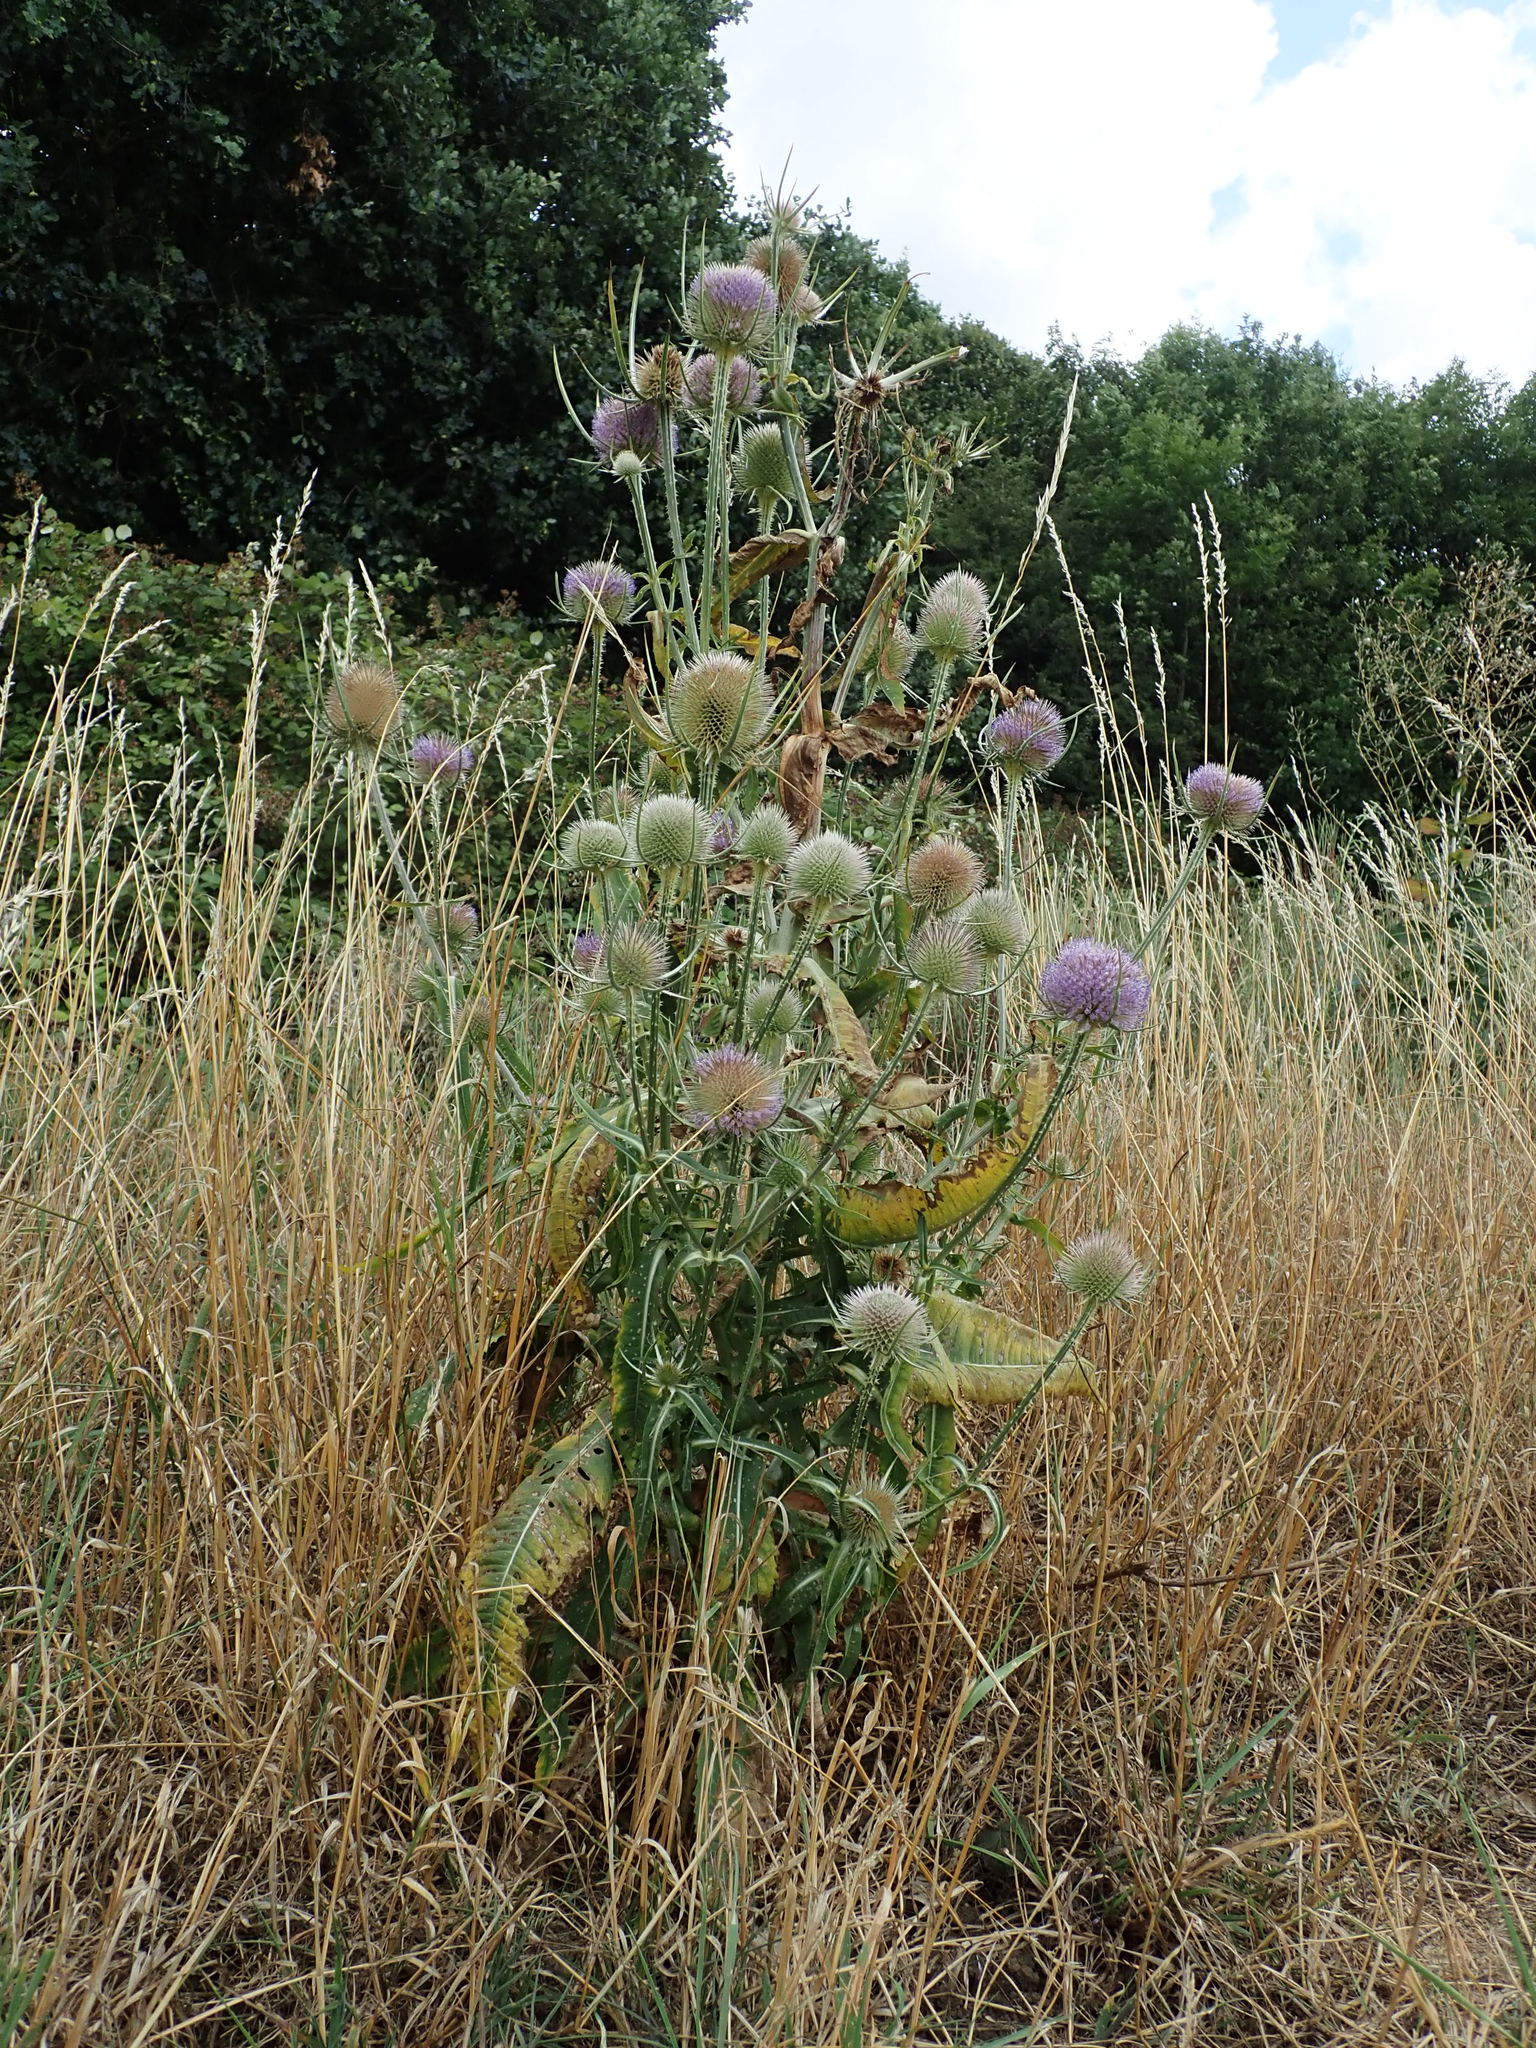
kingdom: Plantae
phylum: Tracheophyta
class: Magnoliopsida
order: Dipsacales
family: Caprifoliaceae
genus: Dipsacus
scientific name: Dipsacus fullonum
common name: Teasel
